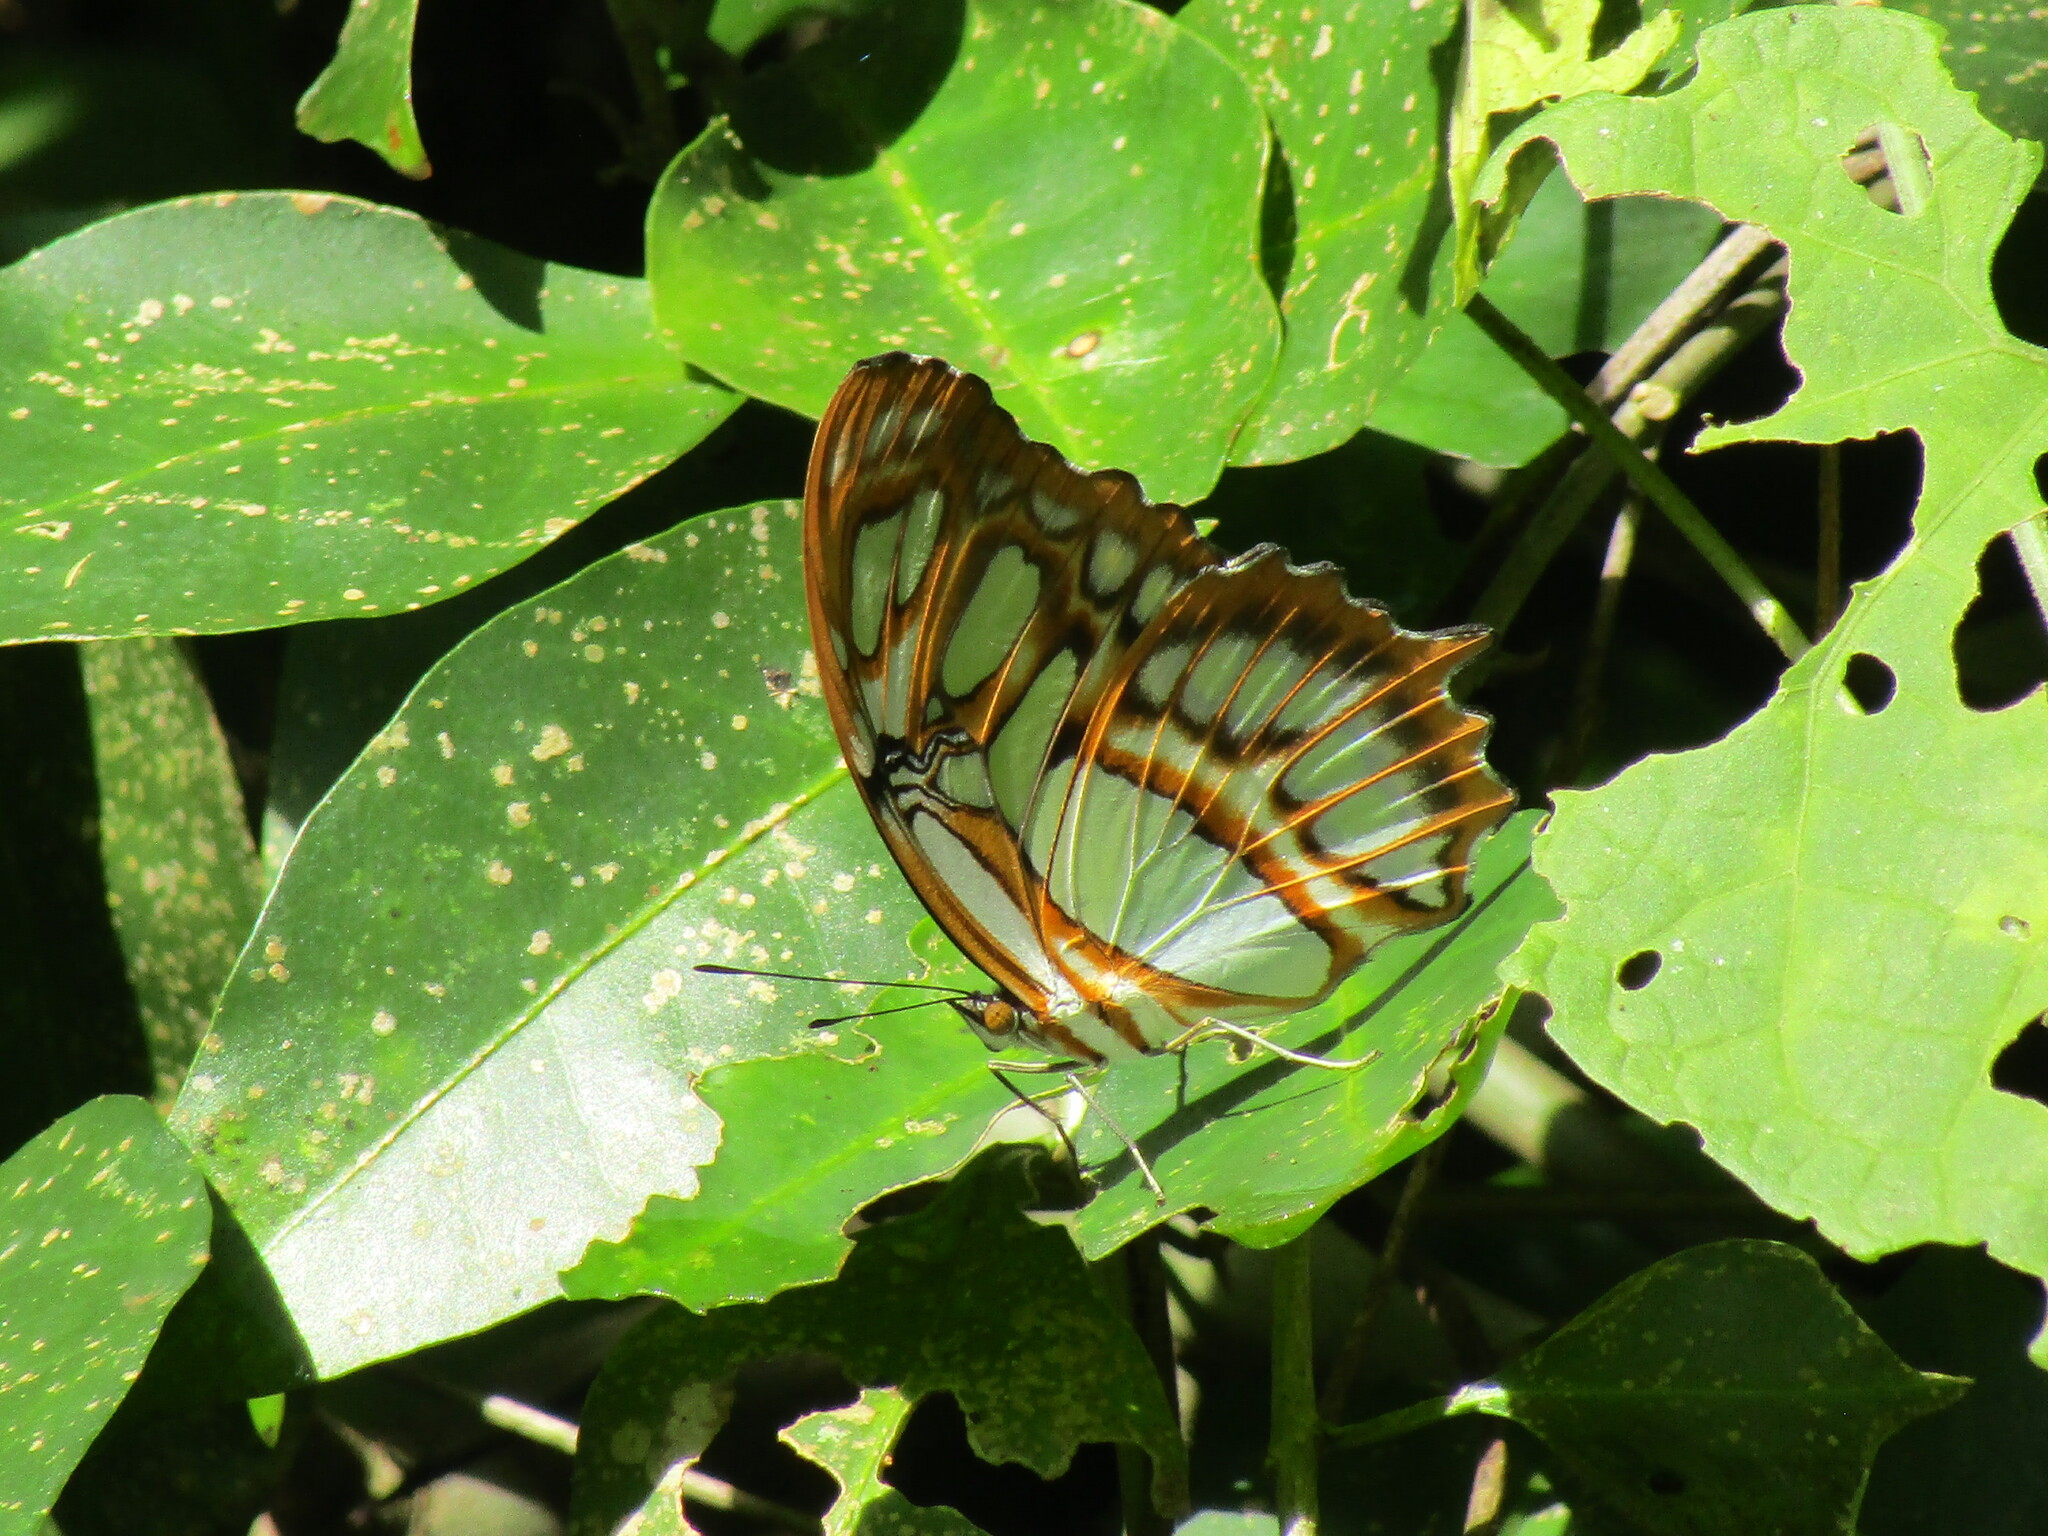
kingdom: Animalia
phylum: Arthropoda
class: Insecta
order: Lepidoptera
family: Nymphalidae
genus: Siproeta
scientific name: Siproeta stelenes
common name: Malachite
